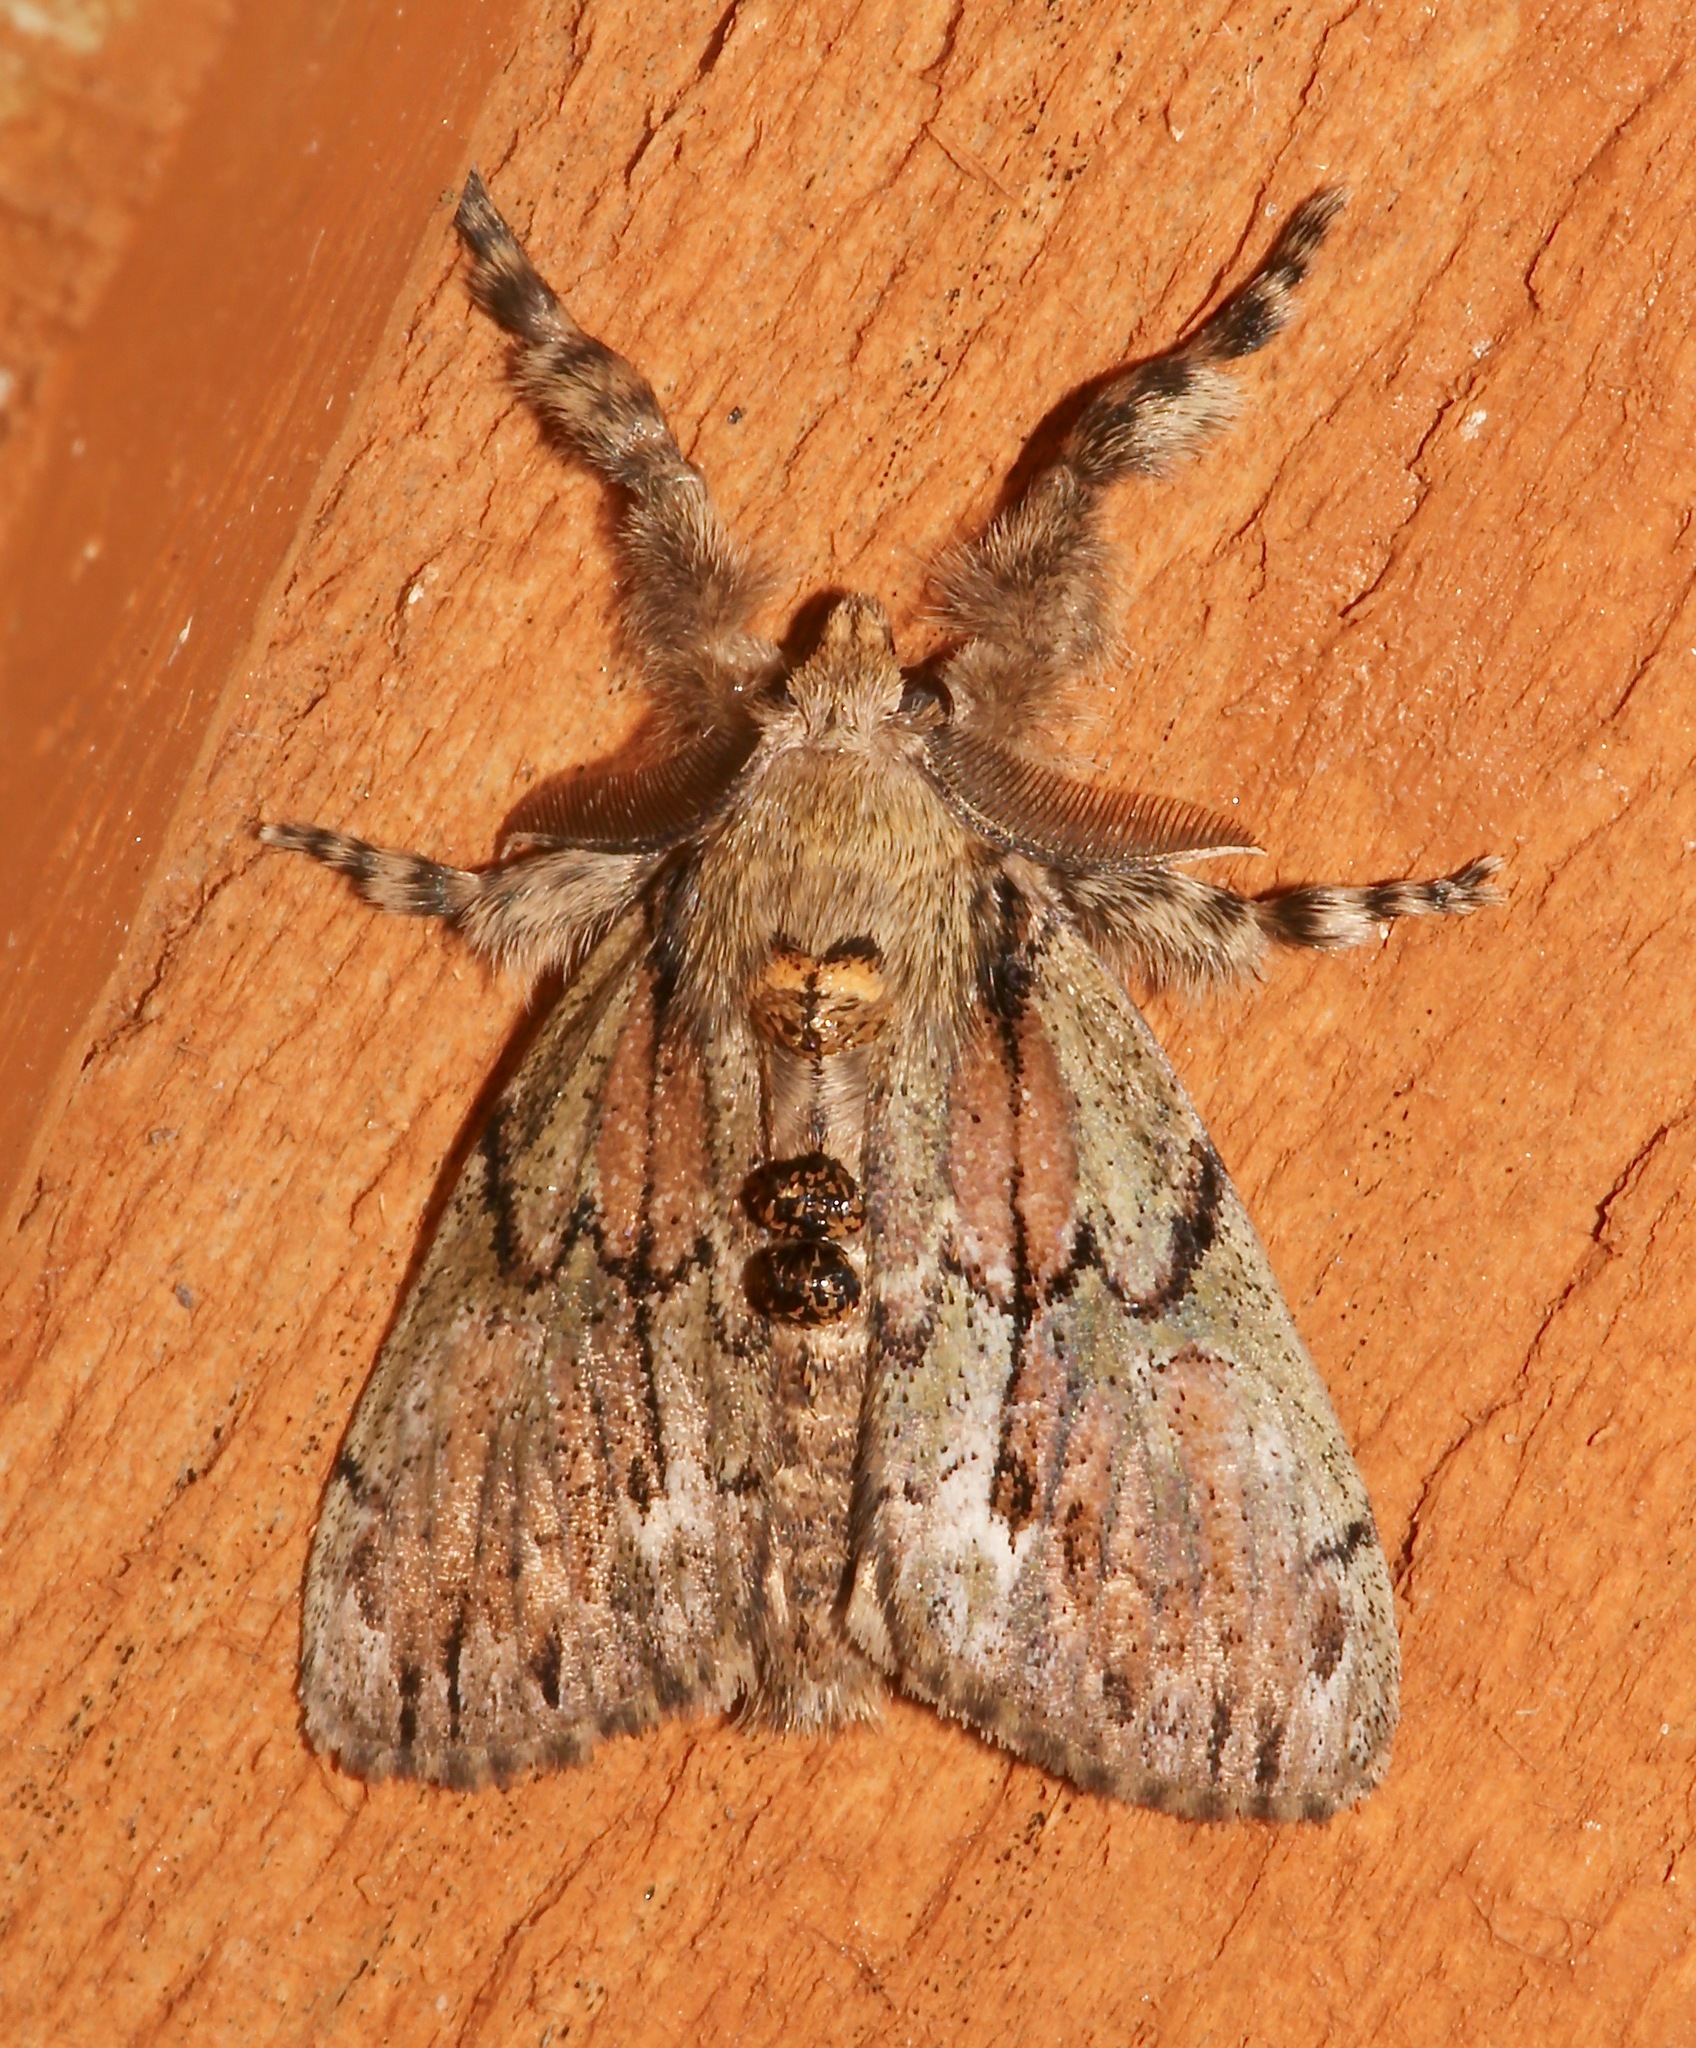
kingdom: Animalia
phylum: Arthropoda
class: Insecta
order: Lepidoptera
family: Erebidae
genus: Dasychira
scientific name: Dasychira dominickaria
